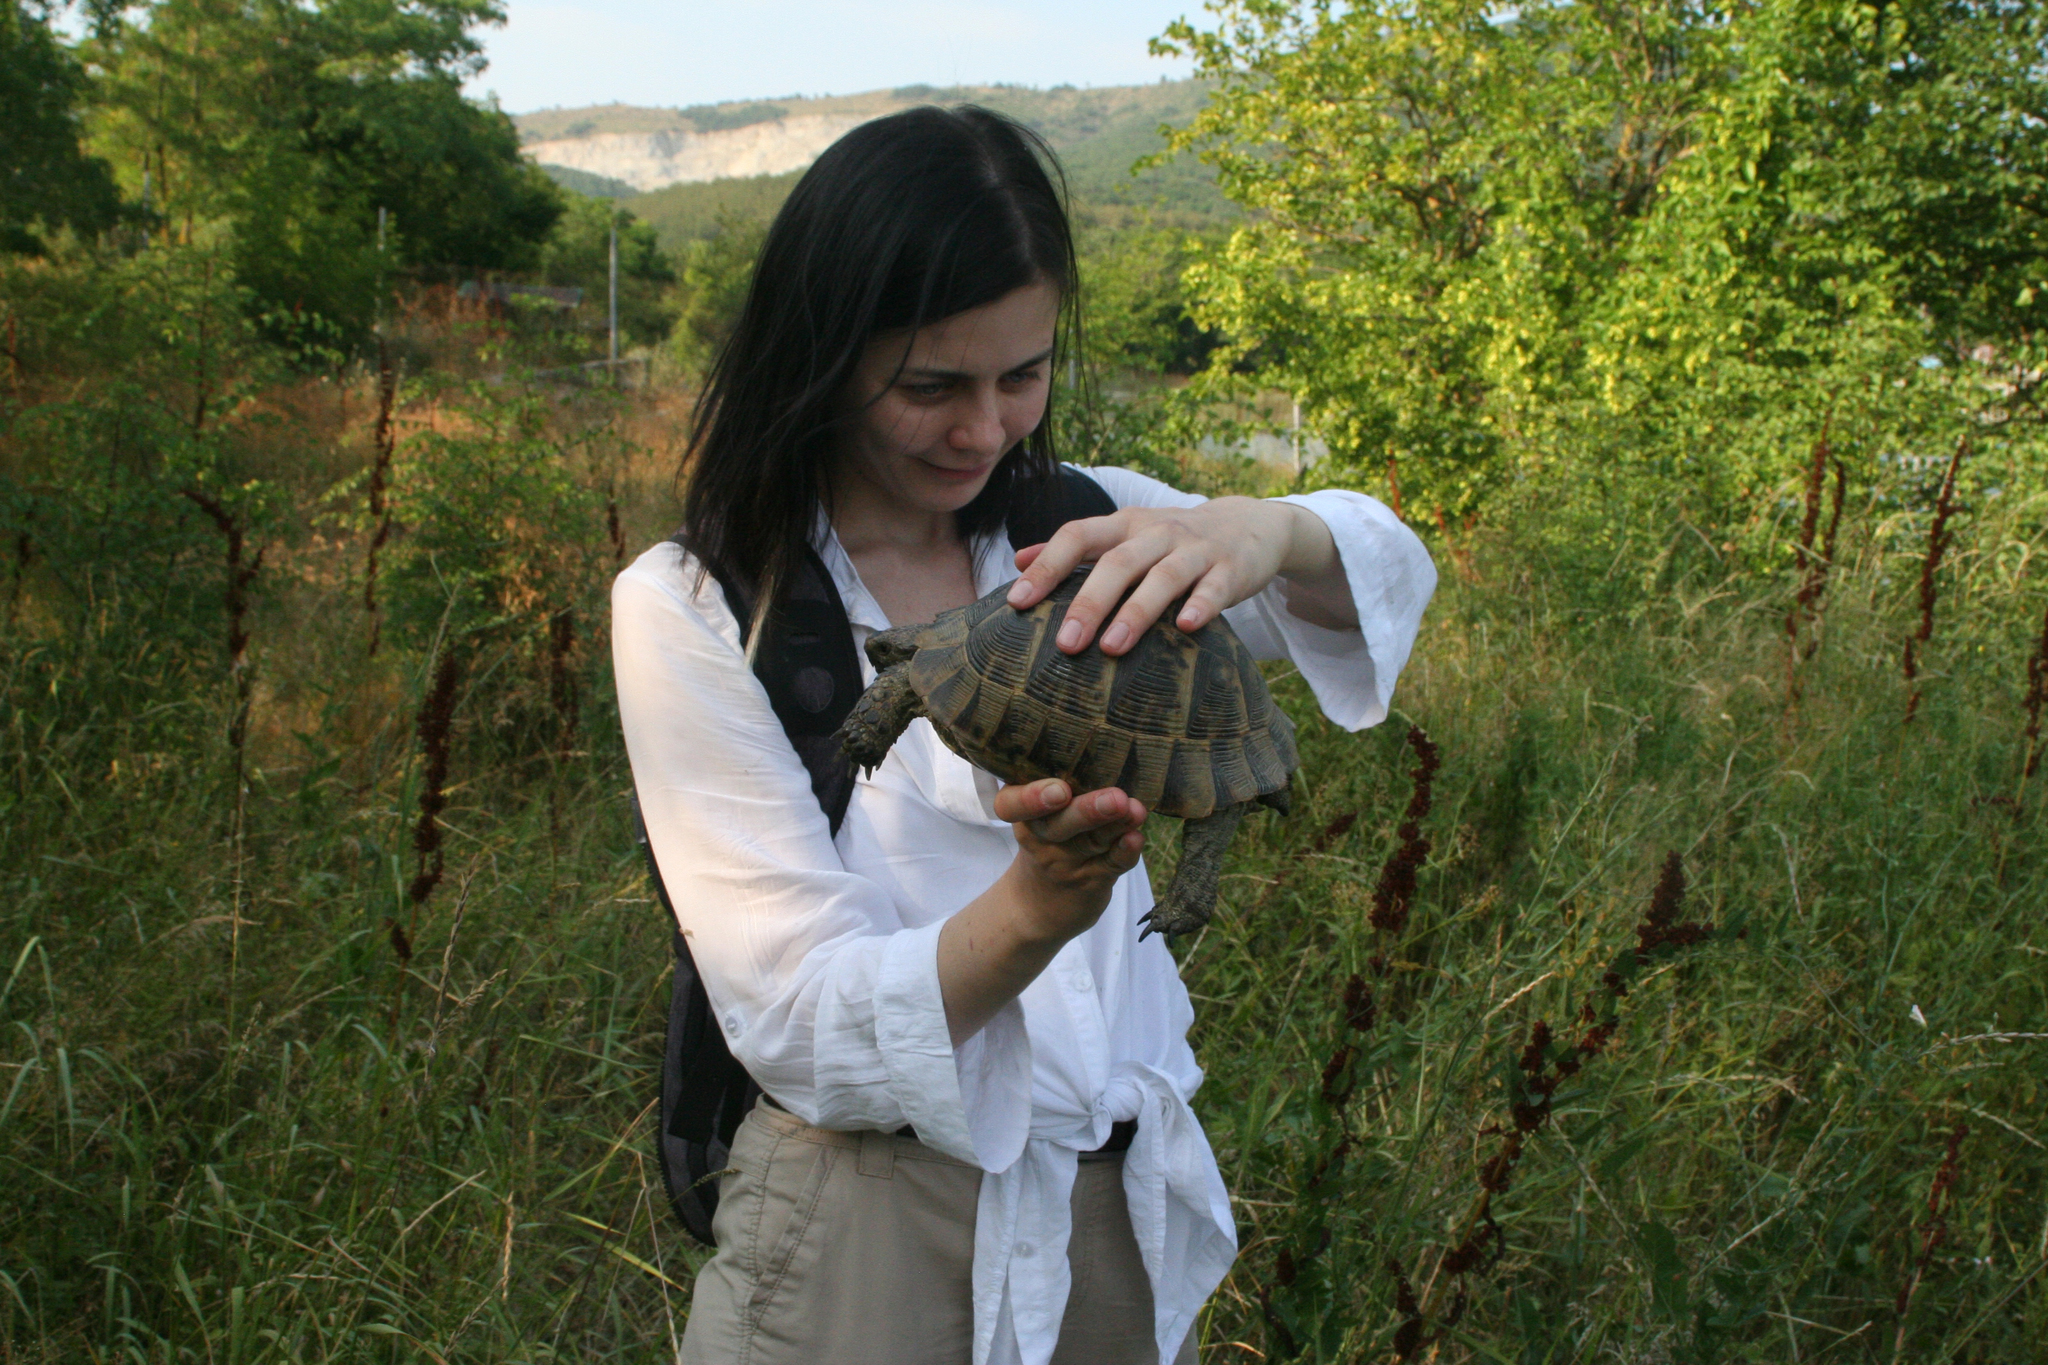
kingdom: Animalia
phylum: Chordata
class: Testudines
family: Testudinidae
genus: Testudo
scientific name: Testudo graeca
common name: Common tortoise
